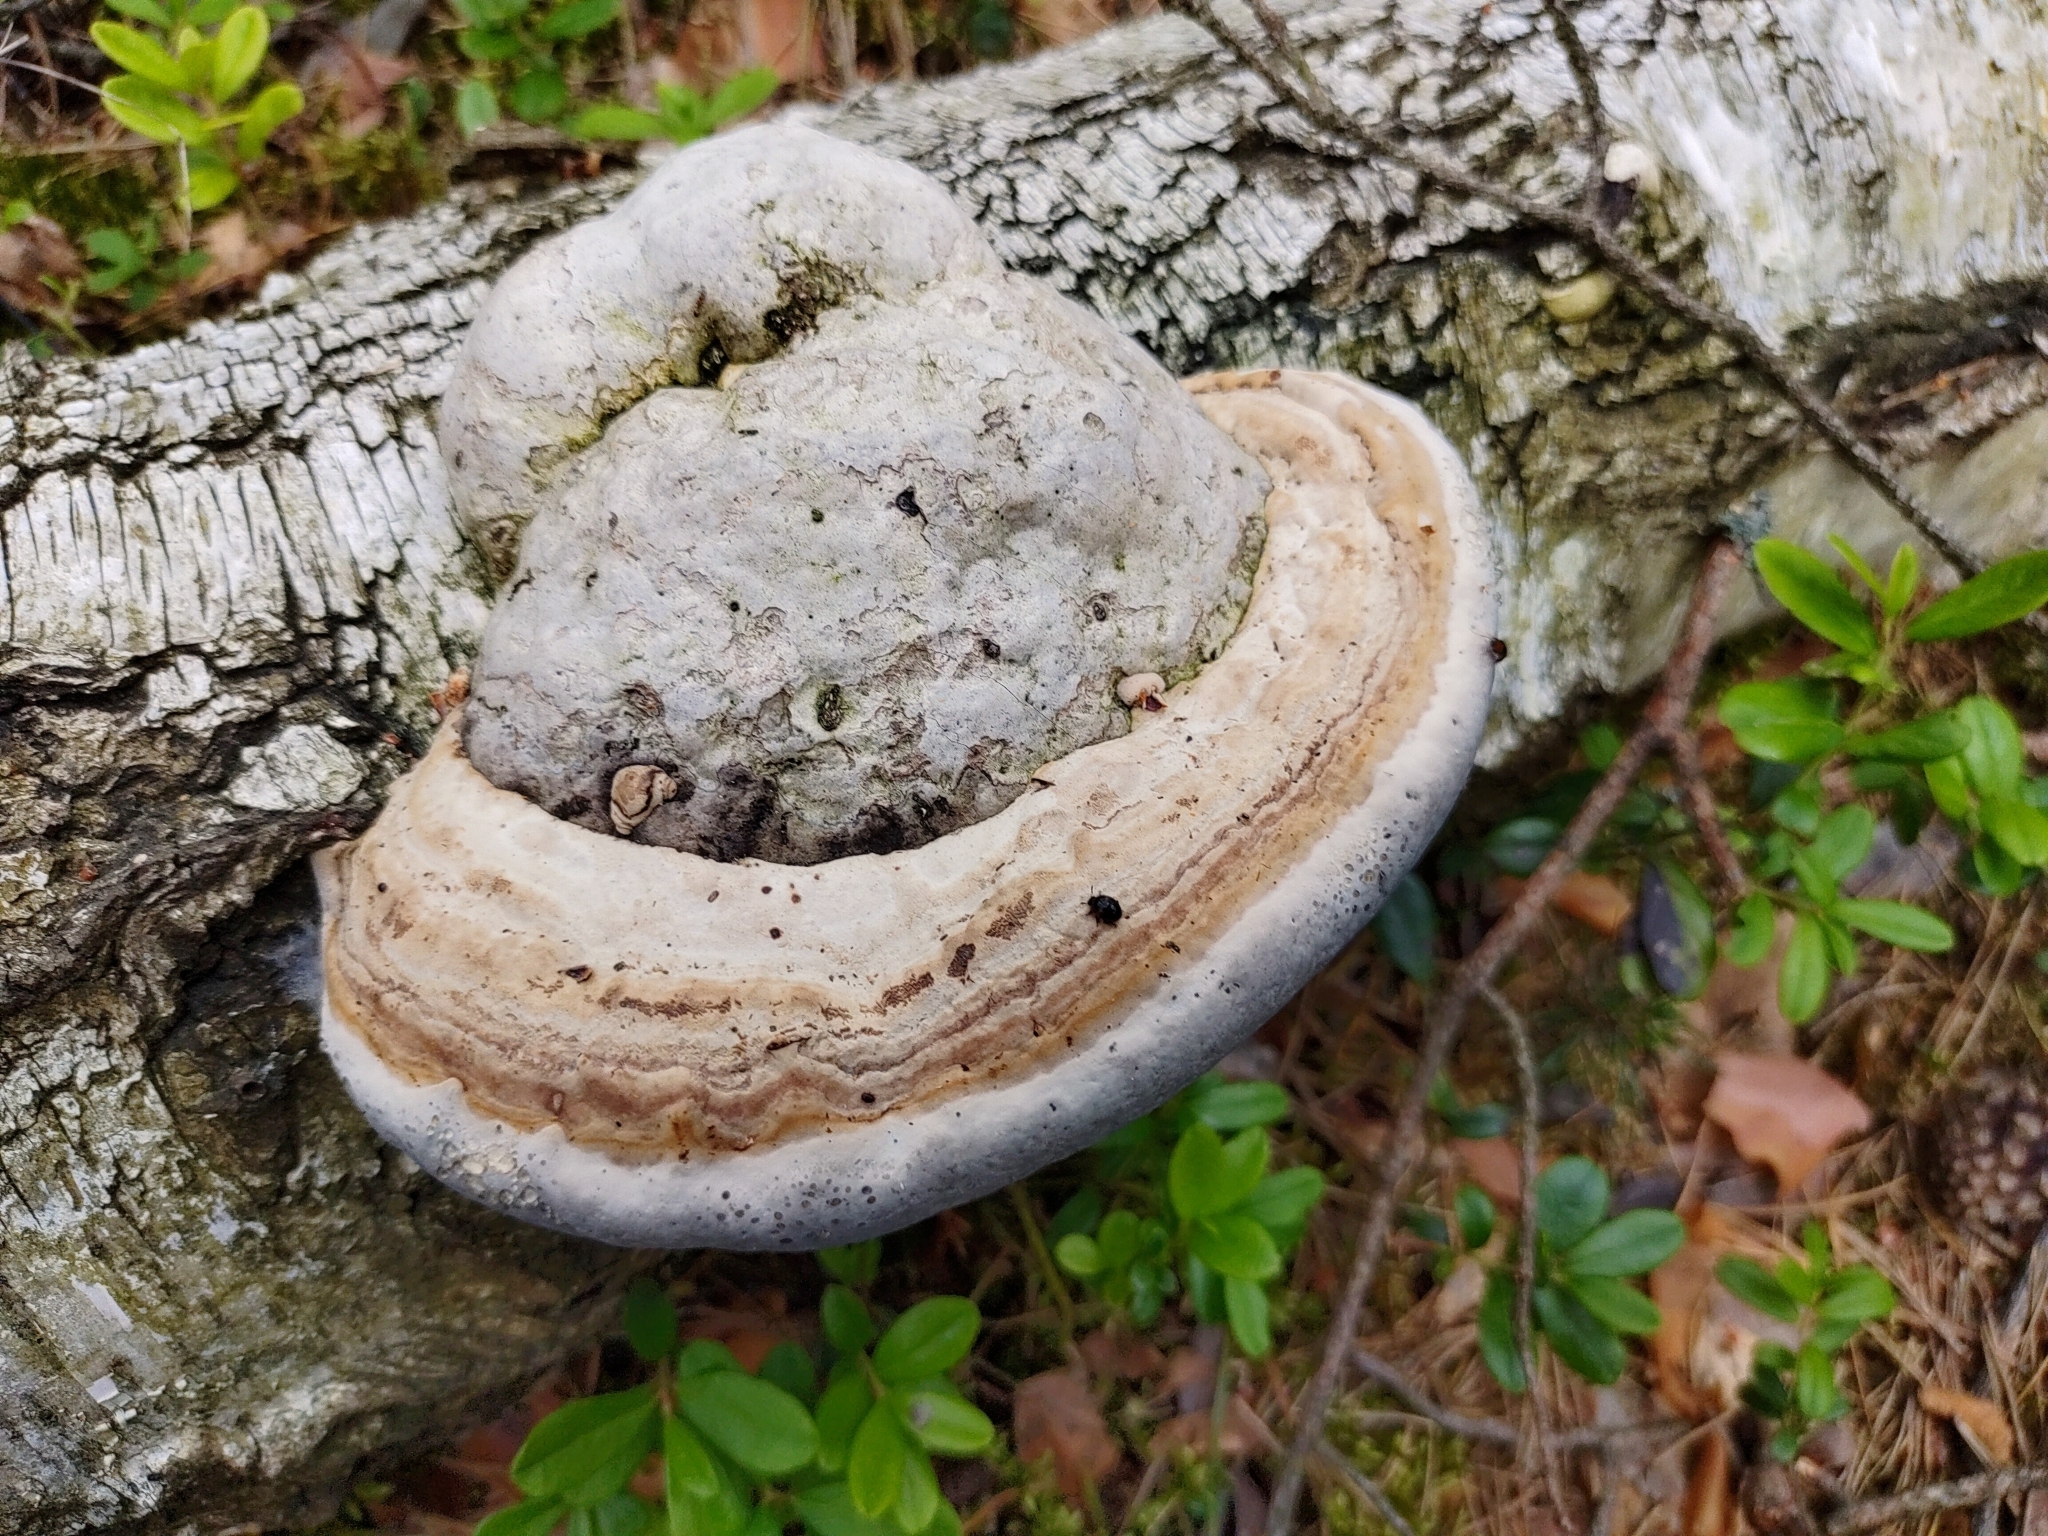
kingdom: Fungi
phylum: Basidiomycota
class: Agaricomycetes
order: Polyporales
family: Polyporaceae
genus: Fomes
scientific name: Fomes fomentarius
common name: Hoof fungus
